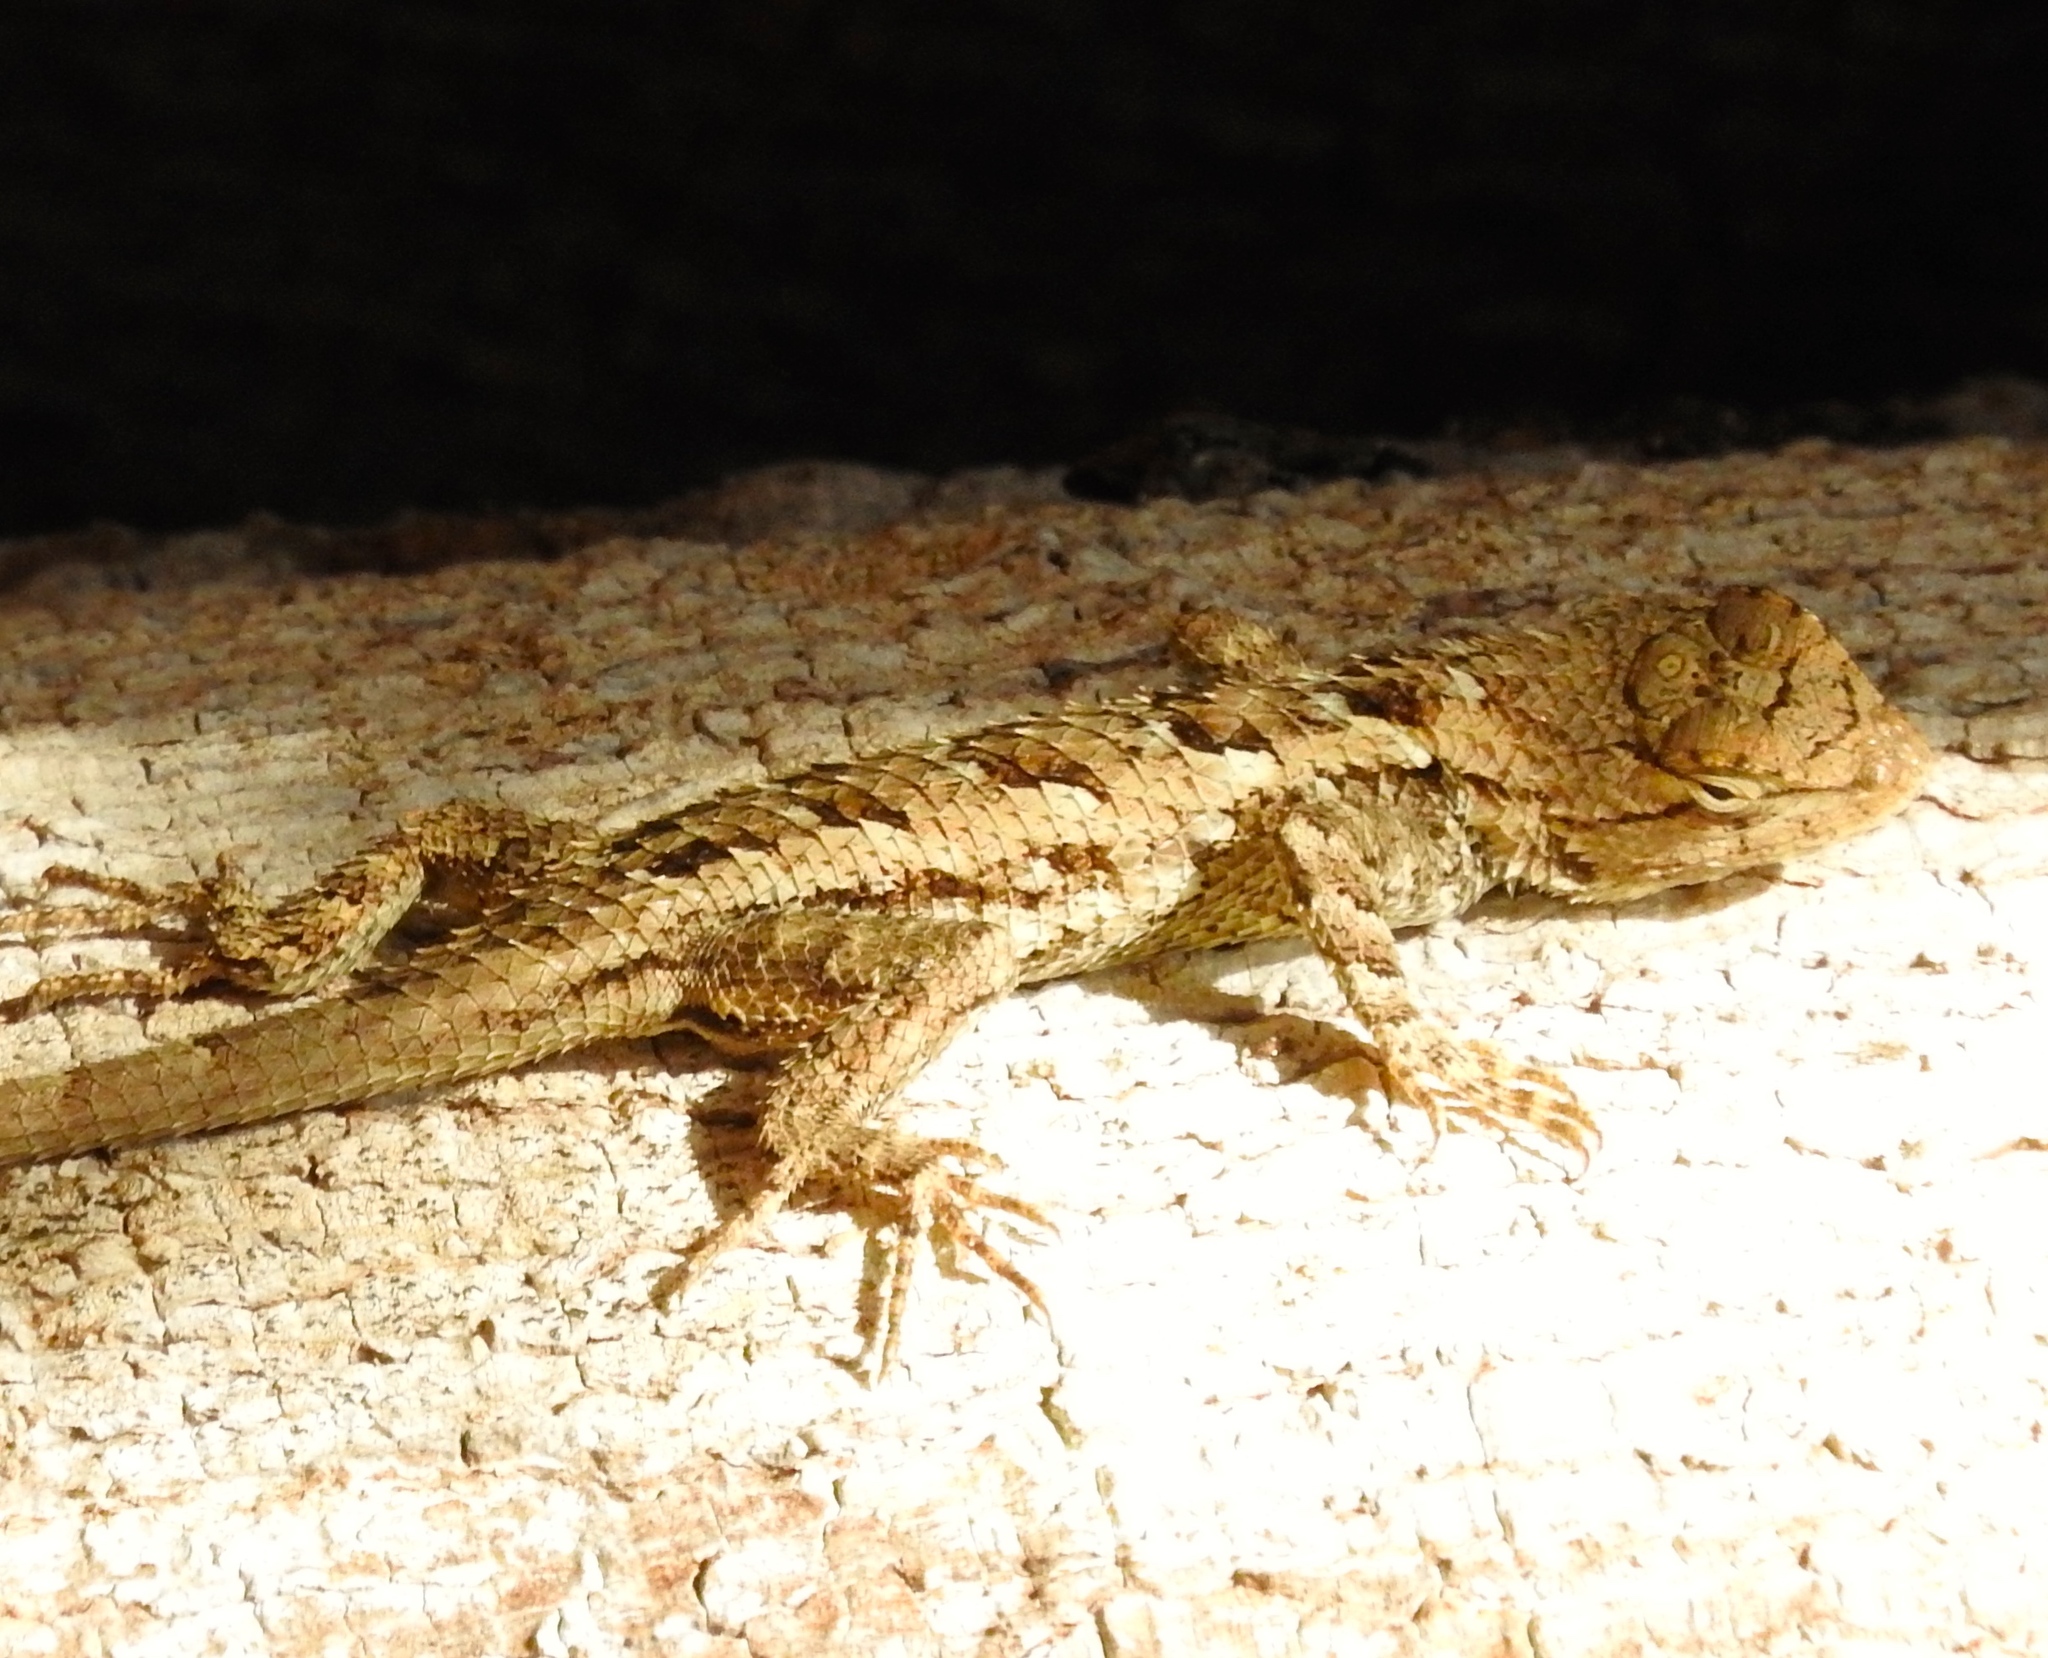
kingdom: Animalia
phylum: Chordata
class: Squamata
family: Phrynosomatidae
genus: Sceloporus
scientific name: Sceloporus clarkii
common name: Clark's spiny lizard
